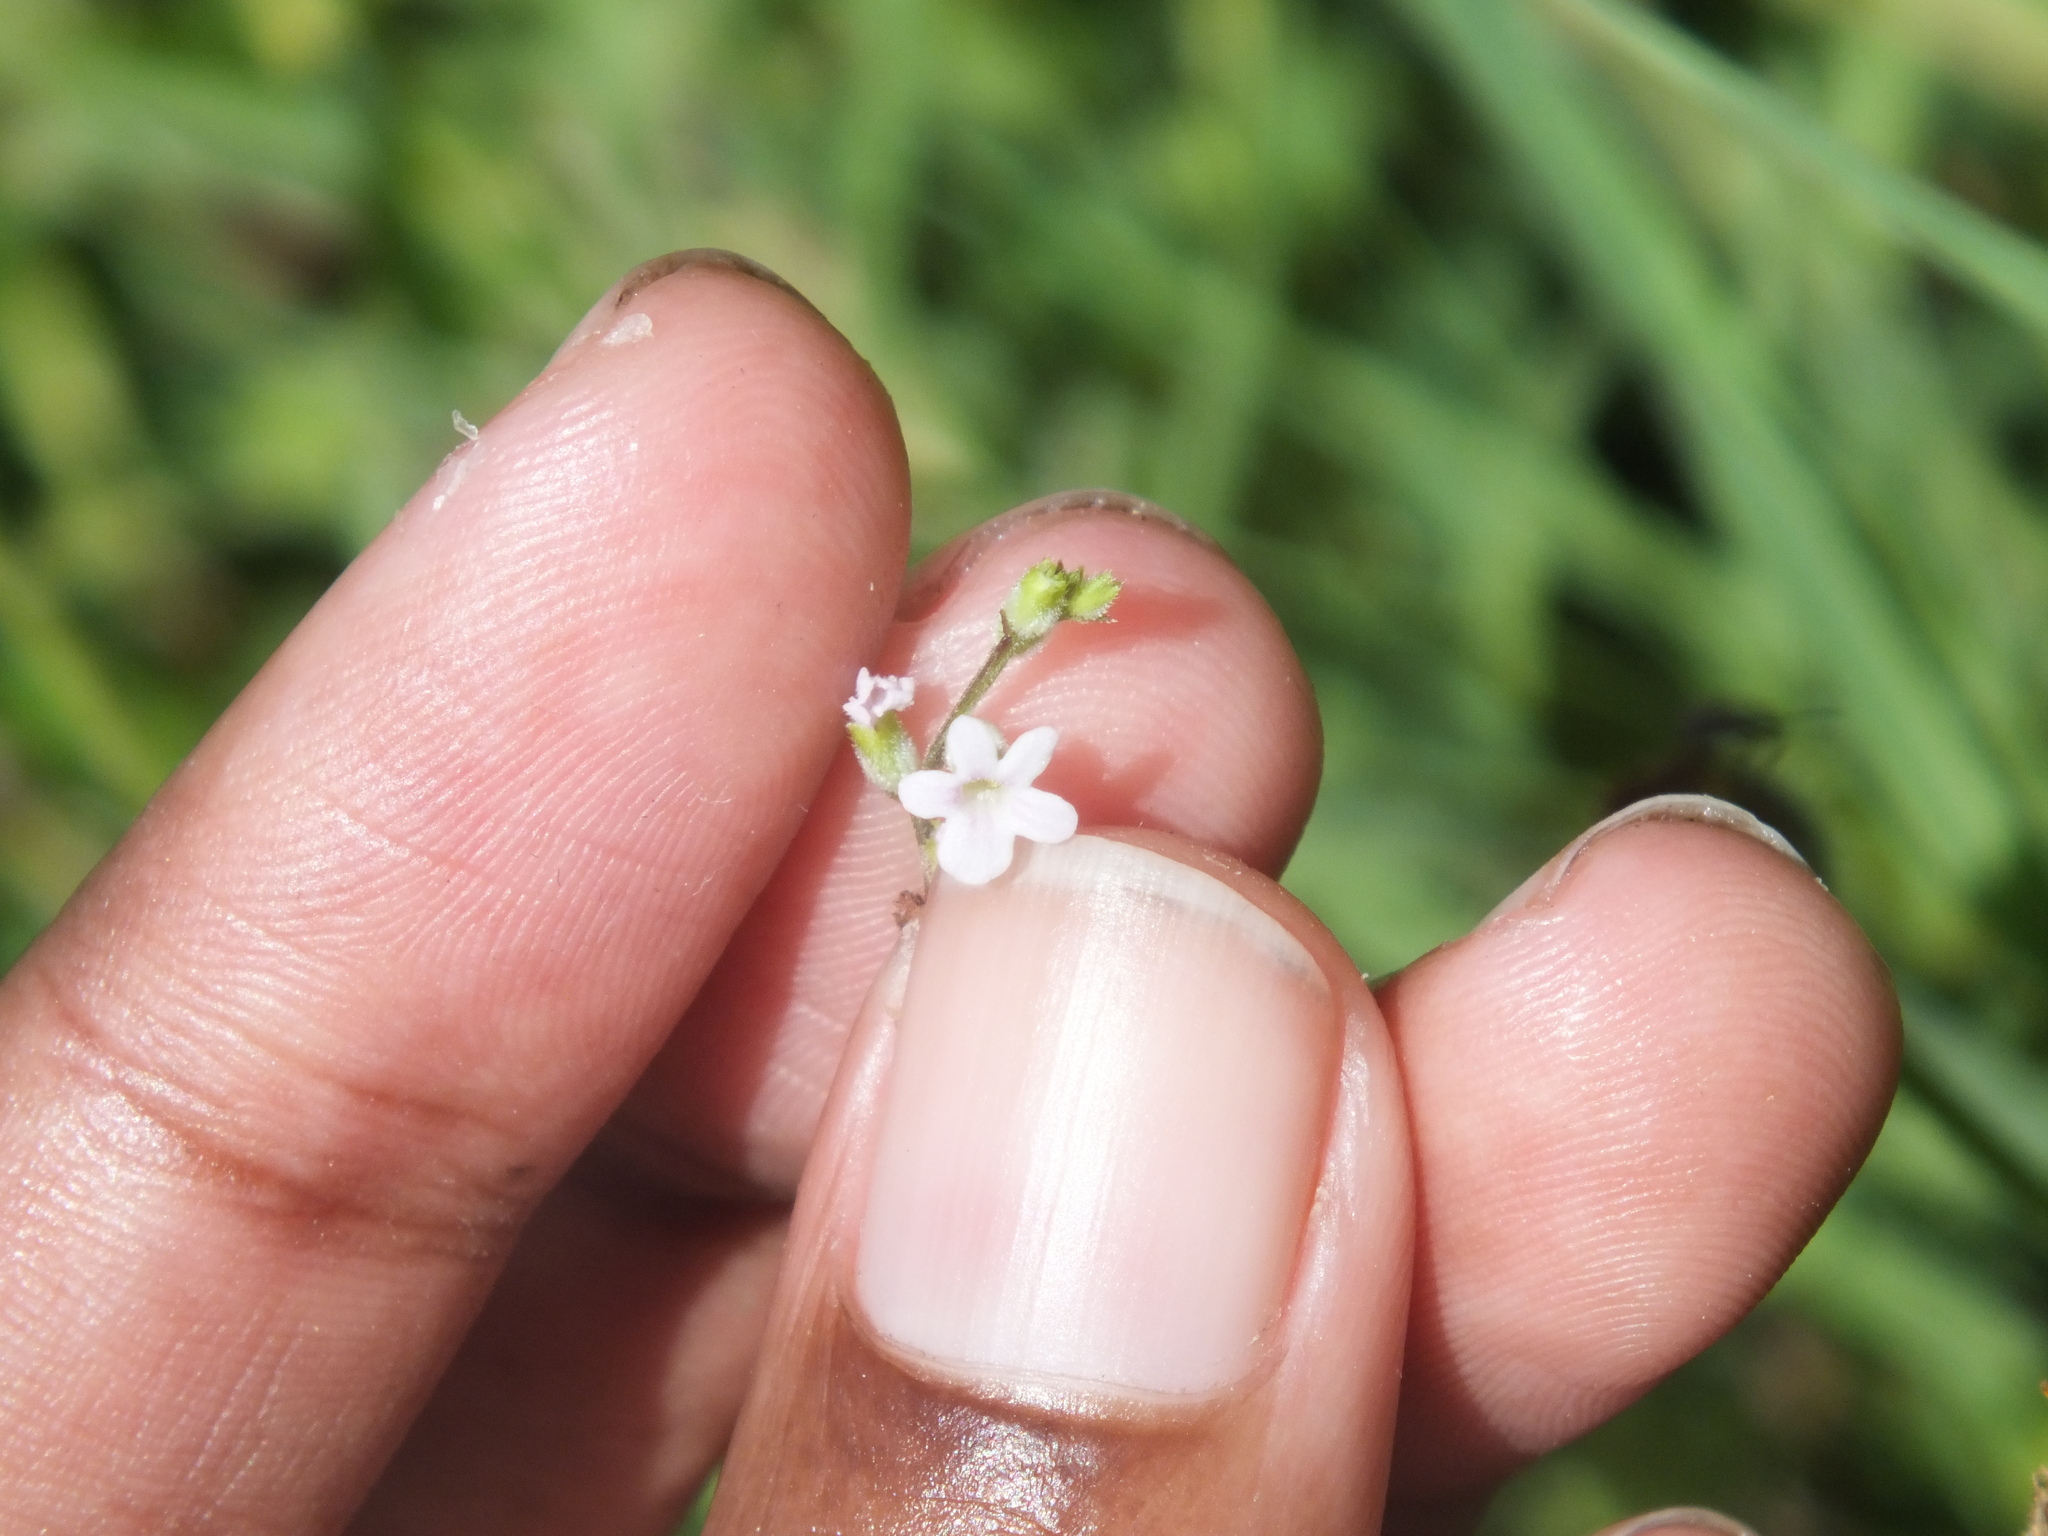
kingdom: Plantae
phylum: Tracheophyta
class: Magnoliopsida
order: Lamiales
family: Verbenaceae
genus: Priva
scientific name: Priva lappulacea
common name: Fasten-'pon-coat
